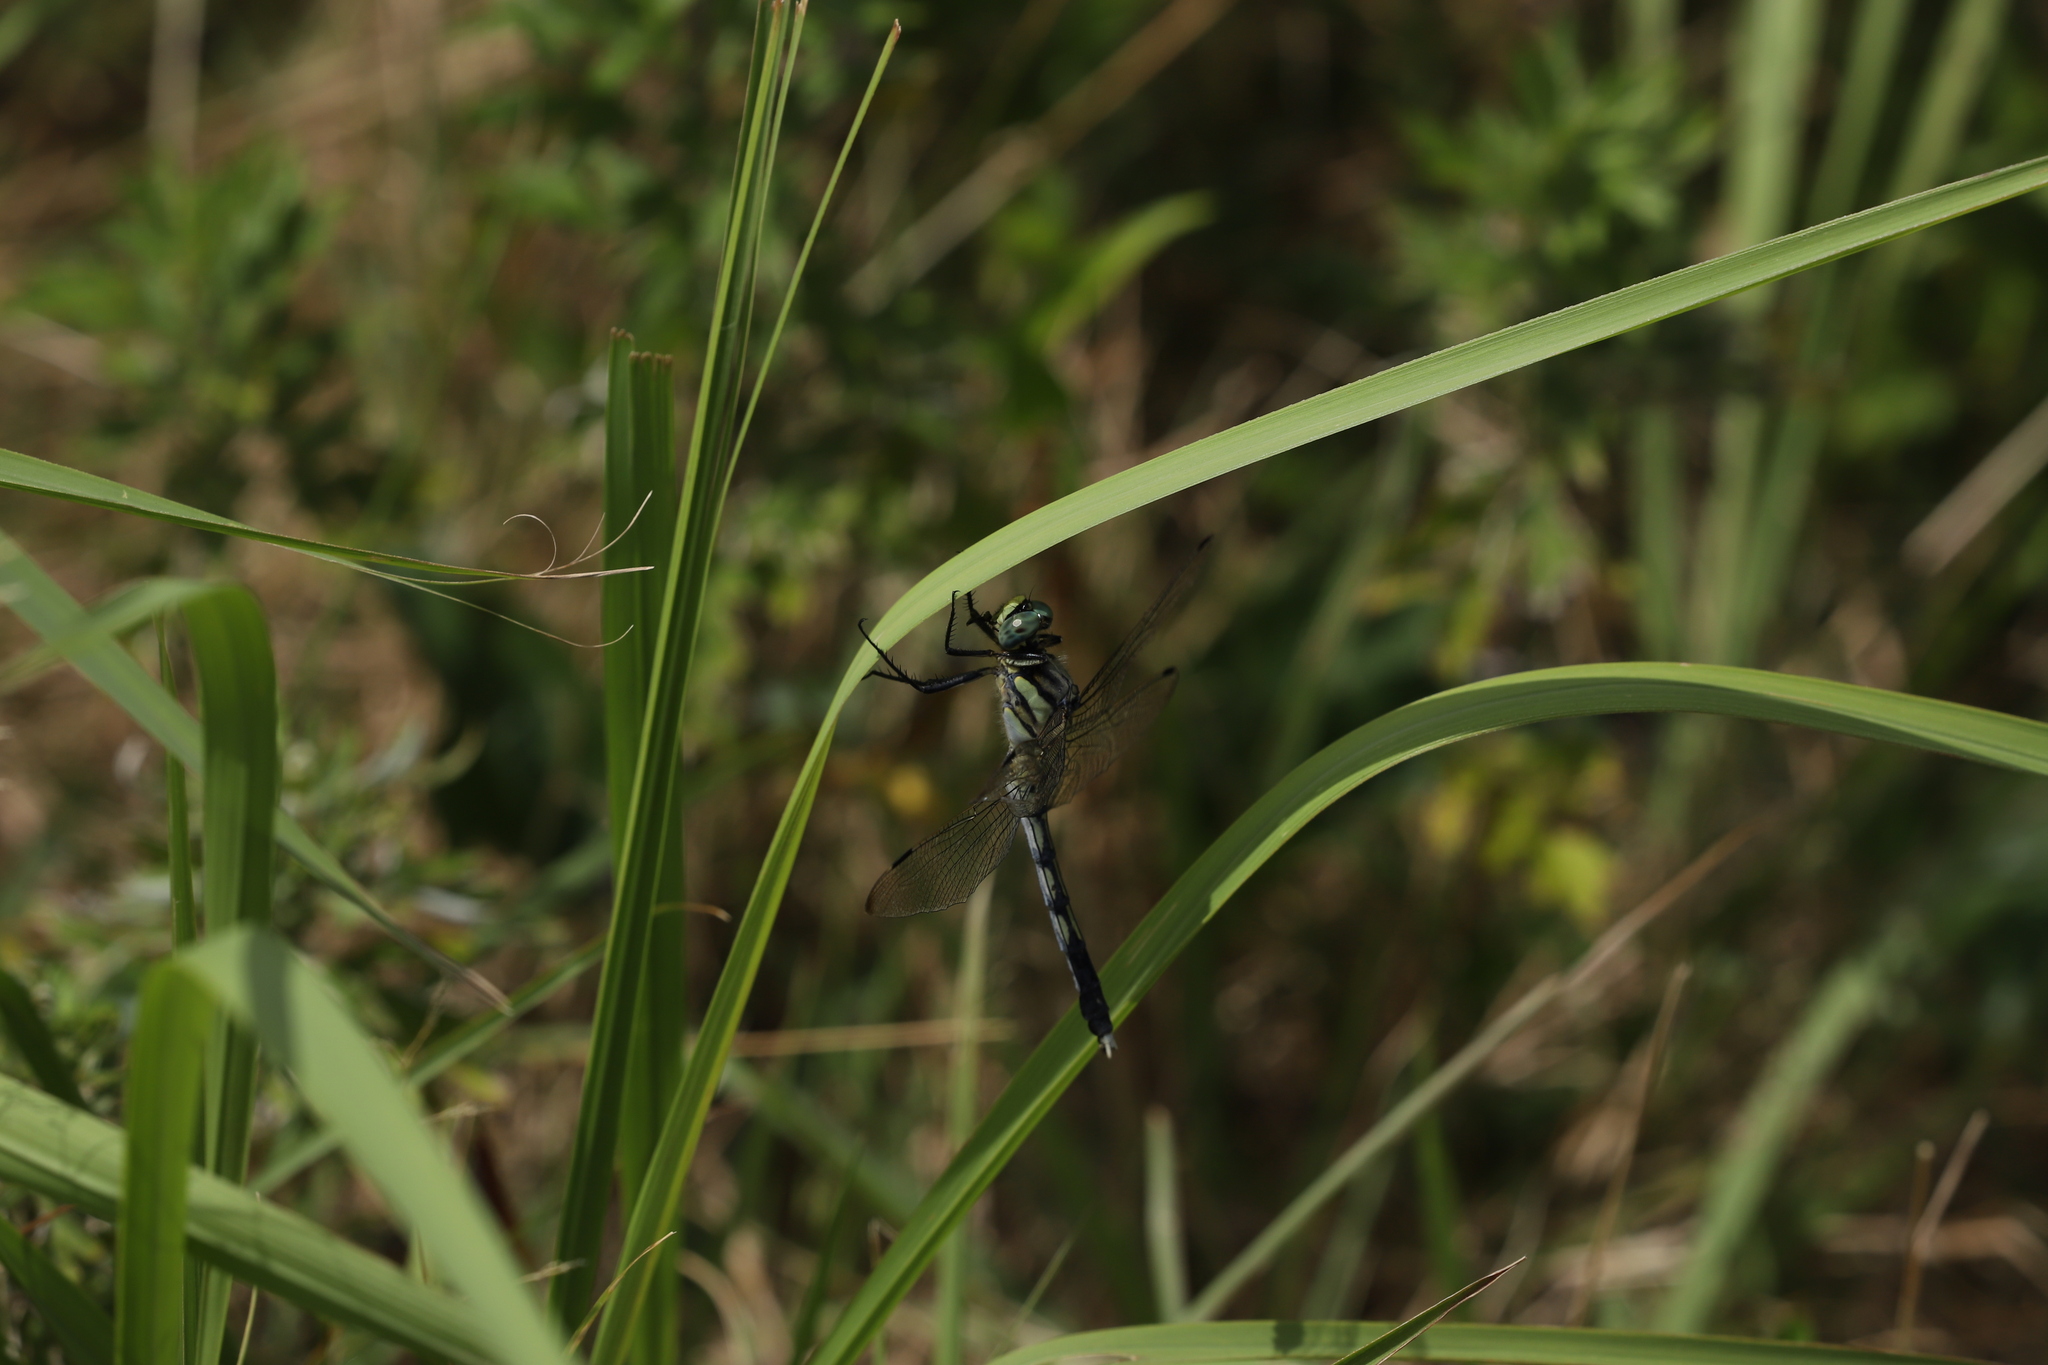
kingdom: Animalia
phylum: Arthropoda
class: Insecta
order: Odonata
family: Libellulidae
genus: Orthetrum
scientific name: Orthetrum albistylum
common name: White-tailed skimmer
